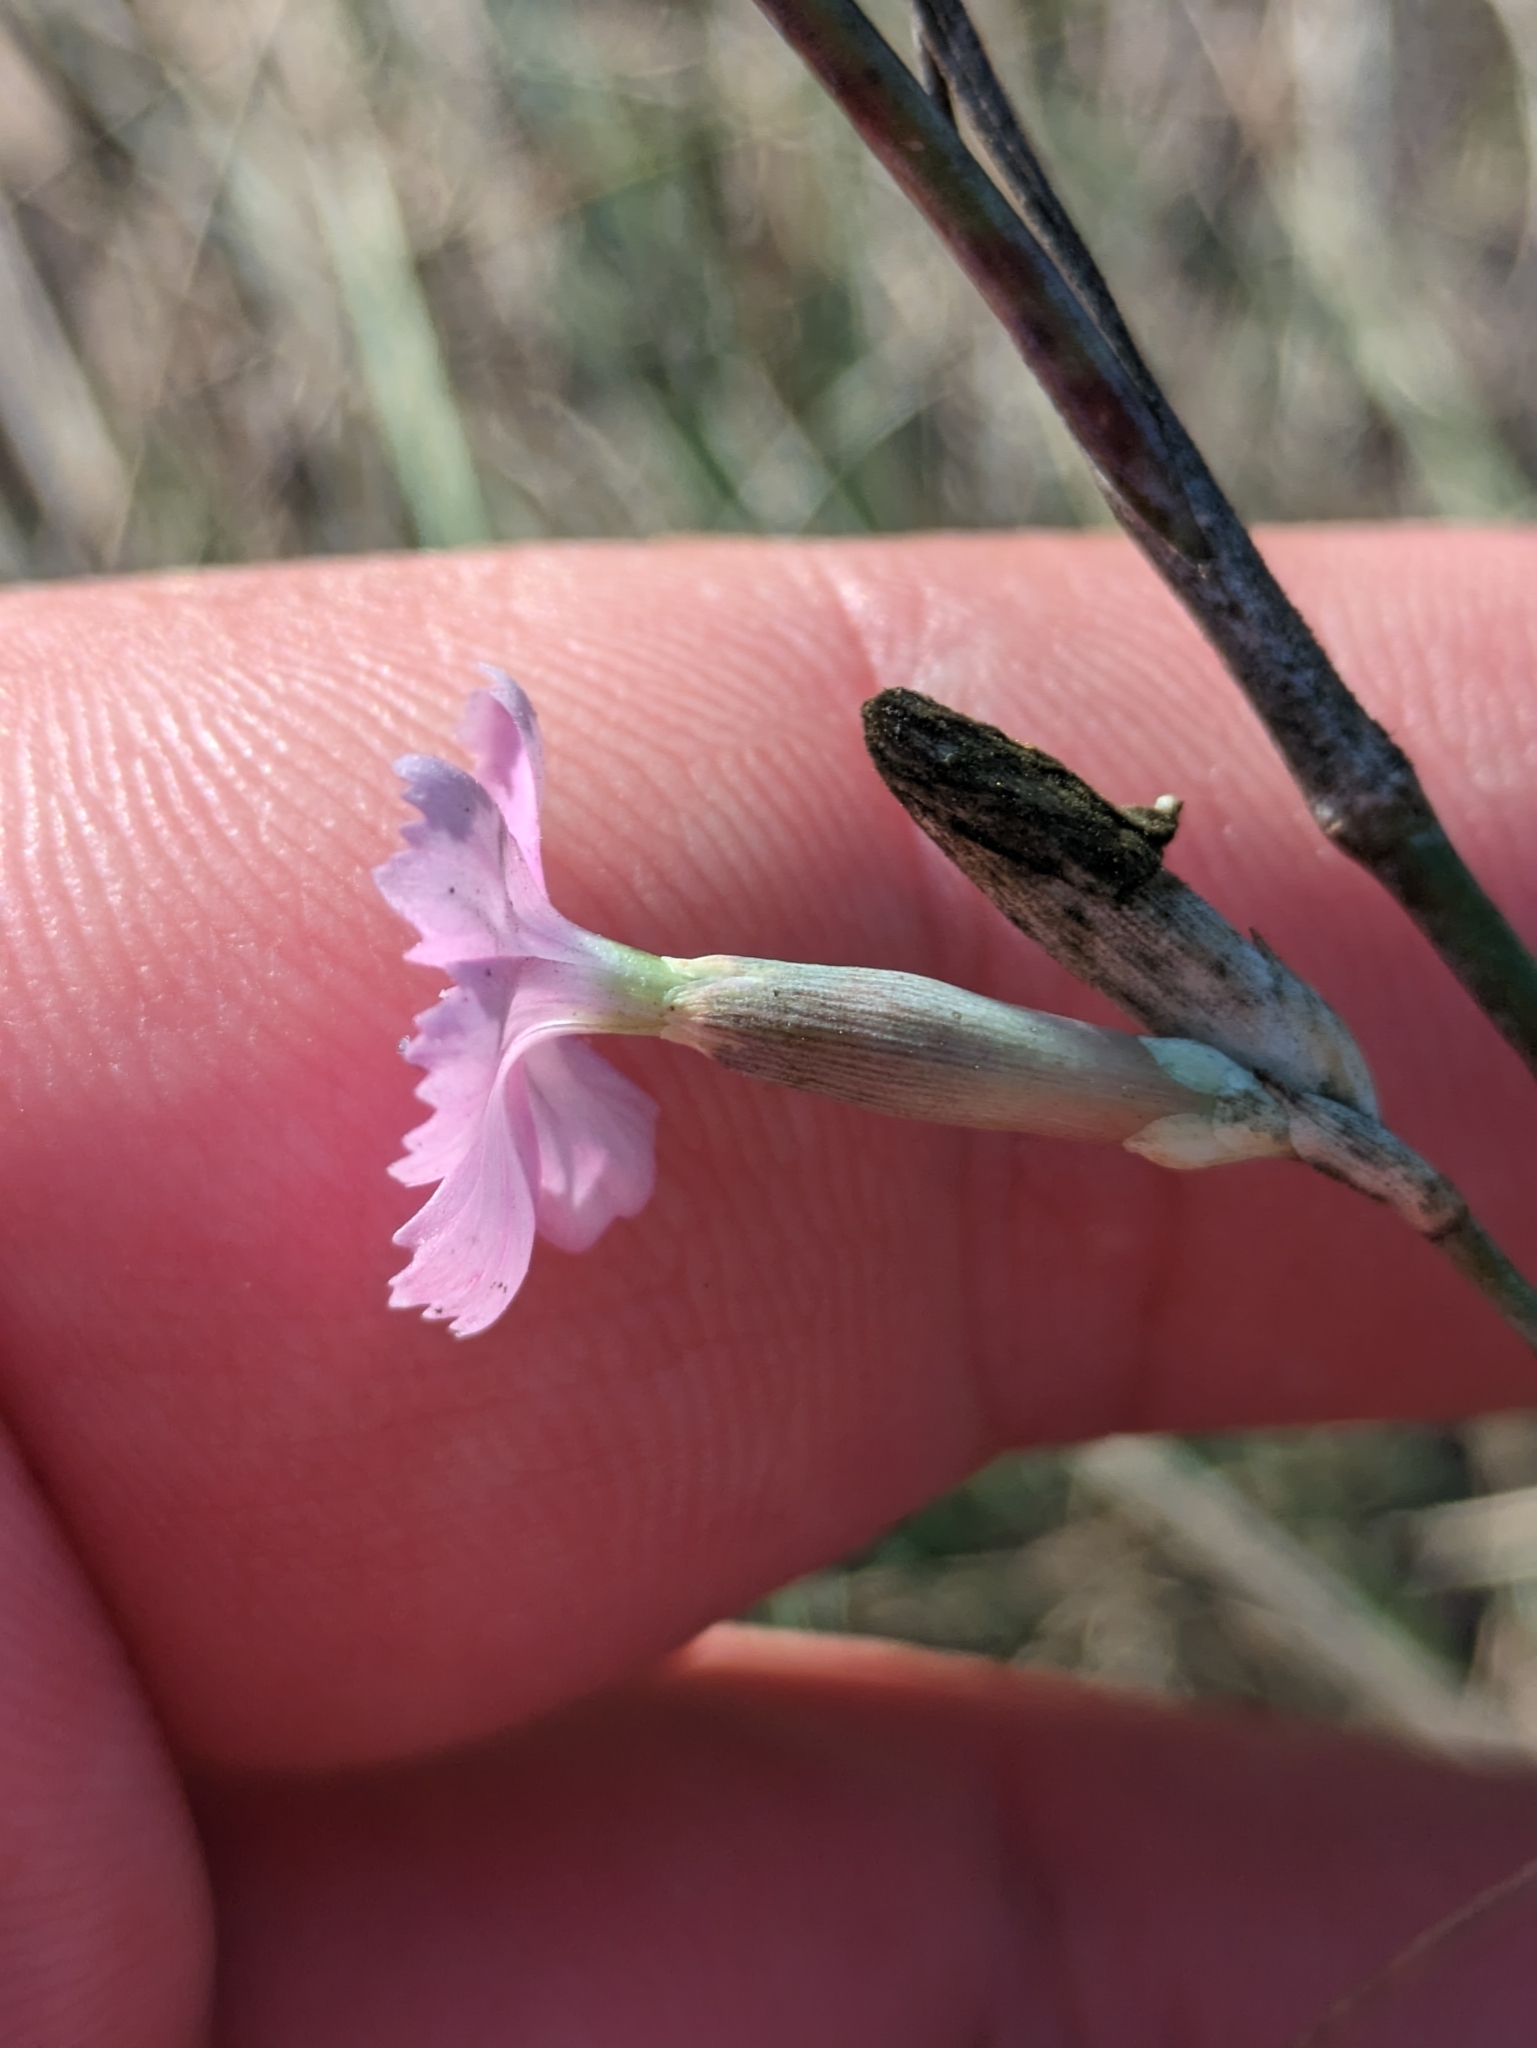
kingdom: Plantae
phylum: Tracheophyta
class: Magnoliopsida
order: Caryophyllales
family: Caryophyllaceae
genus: Dianthus
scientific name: Dianthus polymorphus
